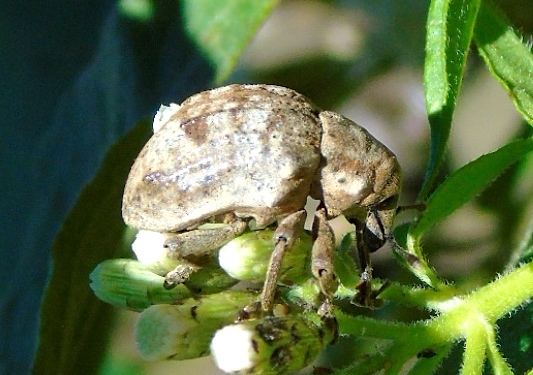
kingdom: Animalia
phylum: Arthropoda
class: Insecta
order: Coleoptera
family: Curculionidae
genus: Sternechus
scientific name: Sternechus
